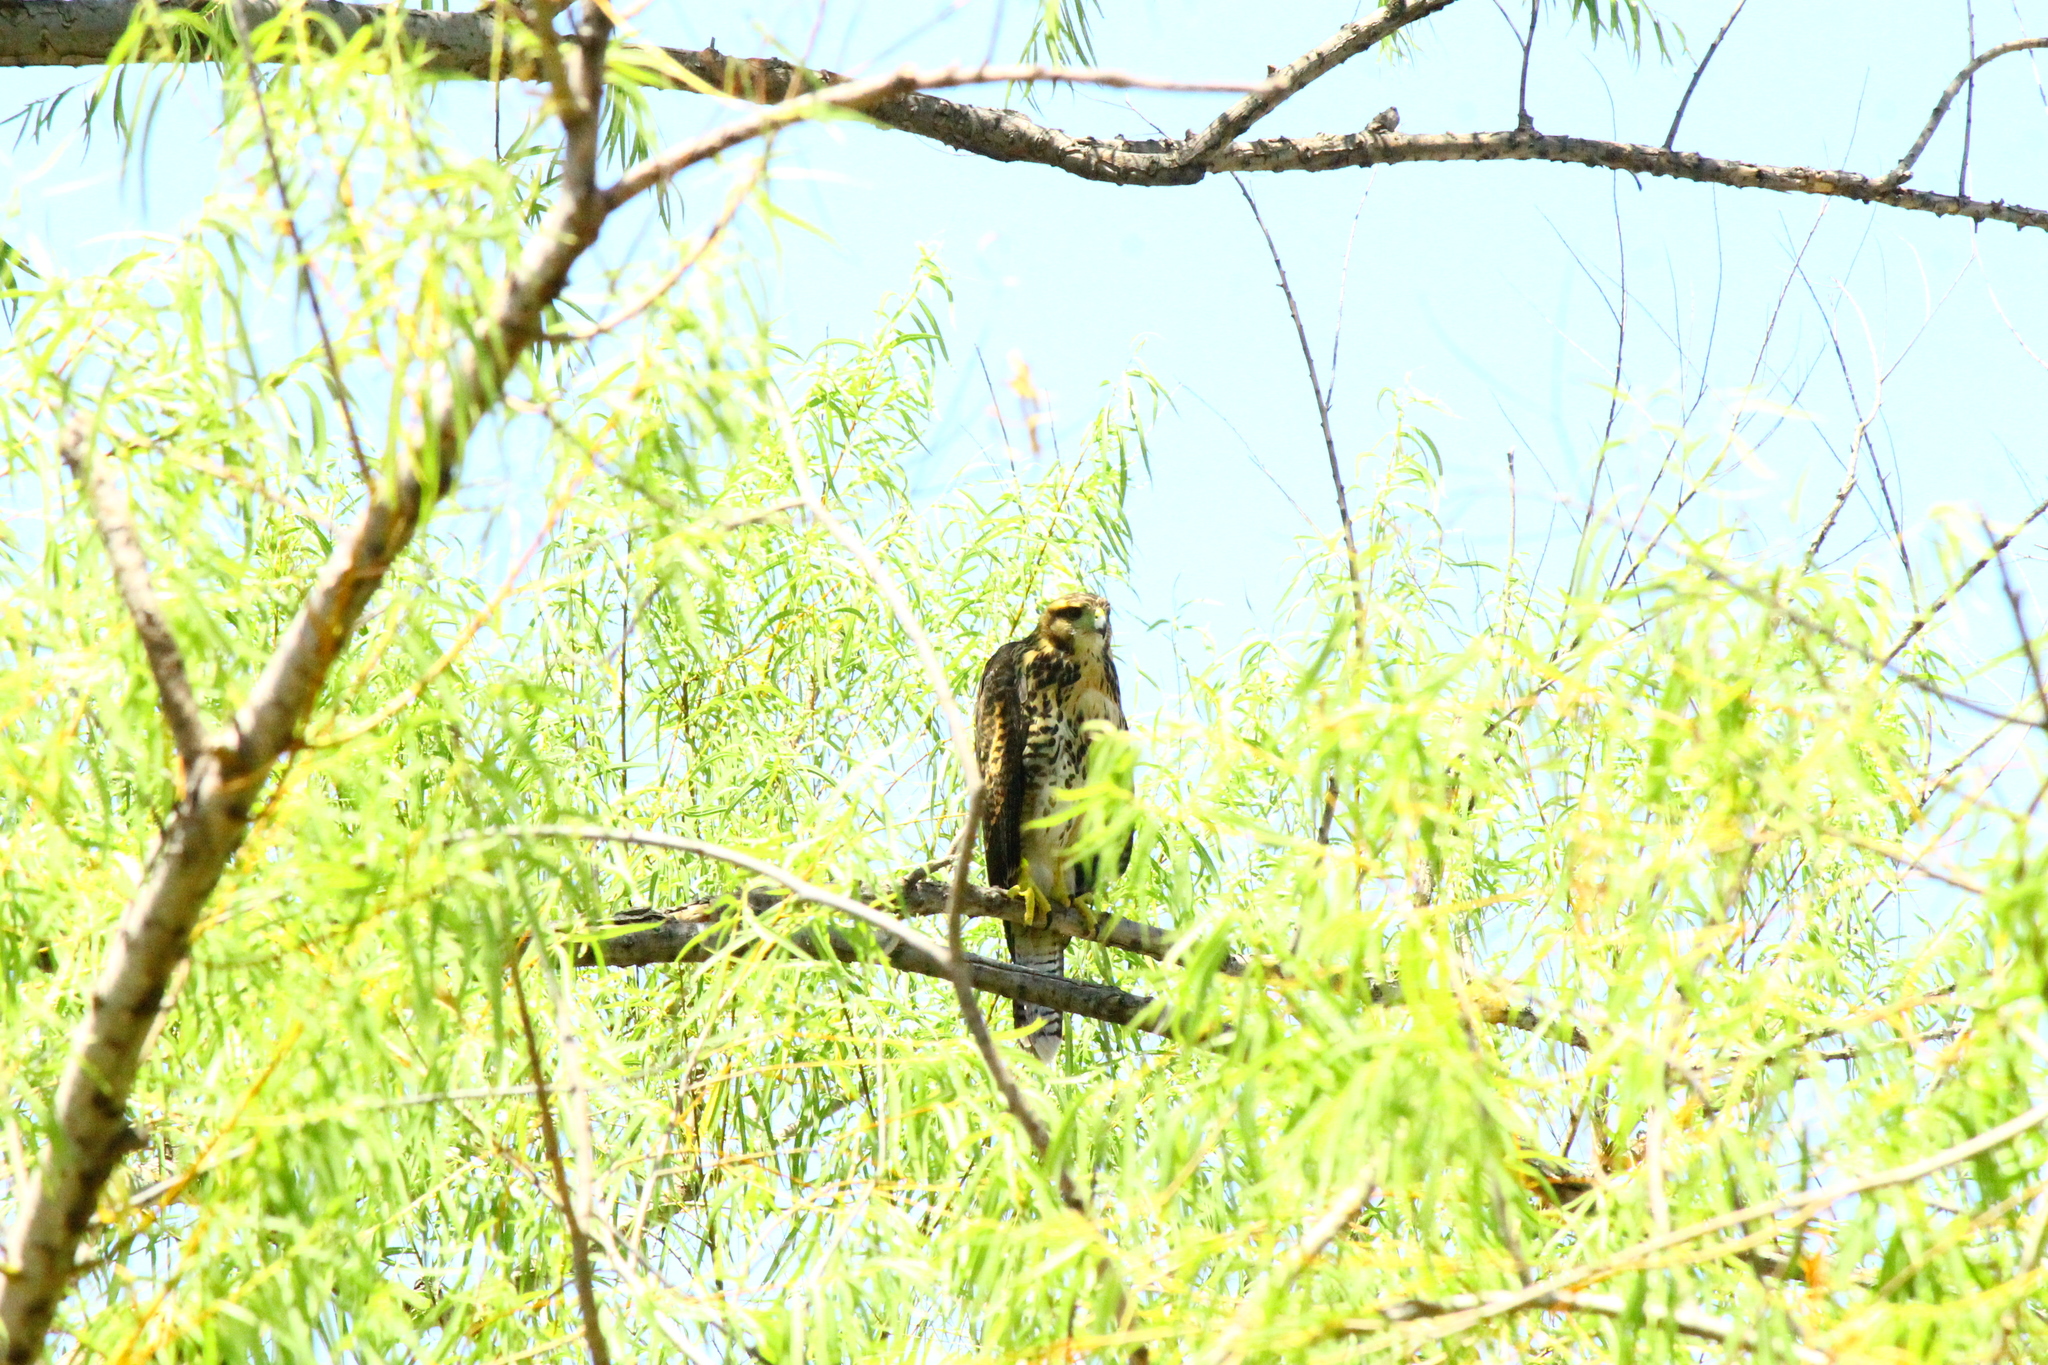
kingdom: Animalia
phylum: Chordata
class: Aves
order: Accipitriformes
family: Accipitridae
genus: Parabuteo
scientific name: Parabuteo unicinctus
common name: Harris's hawk
